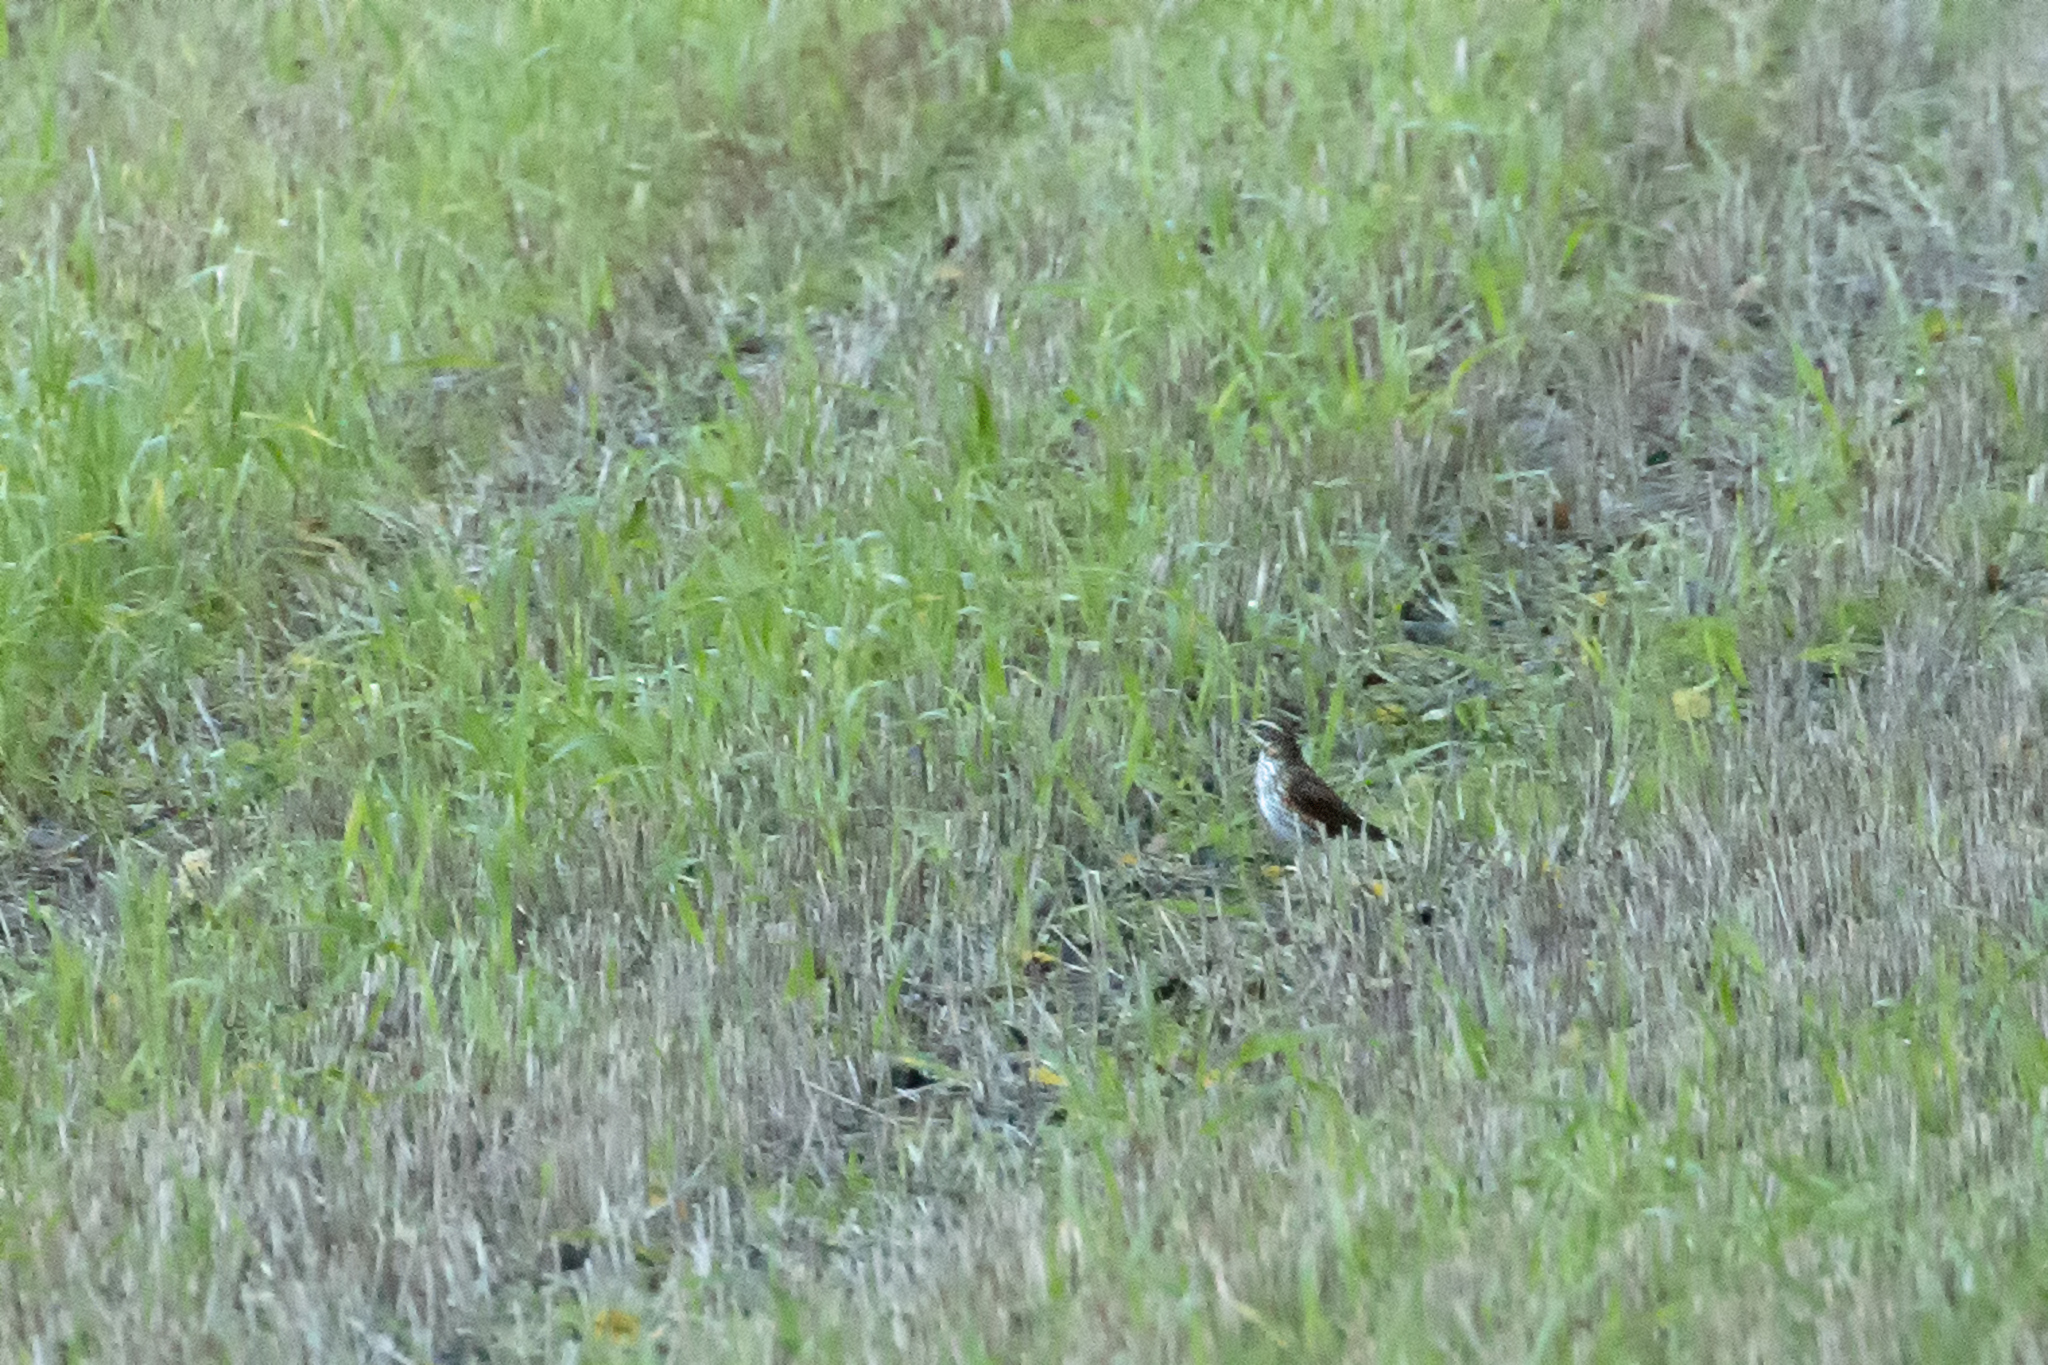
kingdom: Animalia
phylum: Chordata
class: Aves
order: Passeriformes
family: Turdidae
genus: Turdus
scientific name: Turdus iliacus
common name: Redwing
